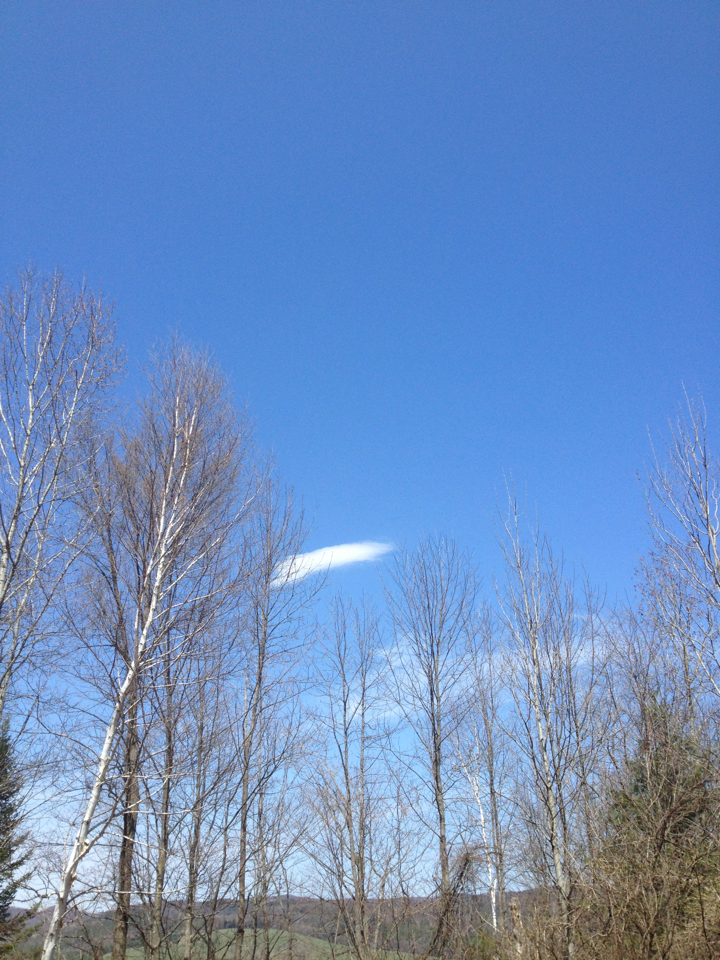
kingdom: Plantae
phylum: Tracheophyta
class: Magnoliopsida
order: Fagales
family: Betulaceae
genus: Betula
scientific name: Betula papyrifera
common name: Paper birch
